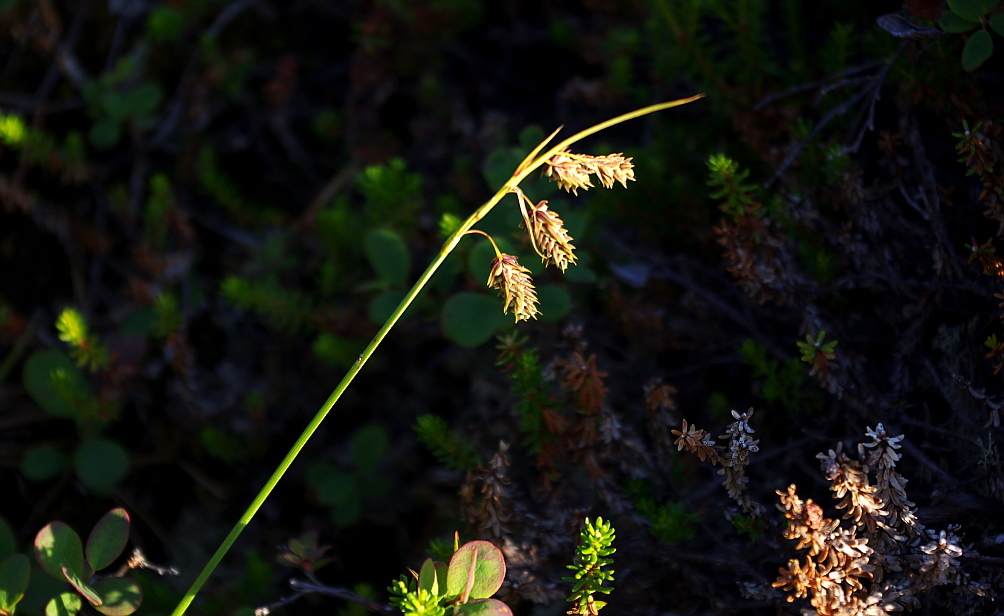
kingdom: Plantae
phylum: Tracheophyta
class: Liliopsida
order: Poales
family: Cyperaceae
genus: Carex
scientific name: Carex magellanica
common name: Bog sedge
